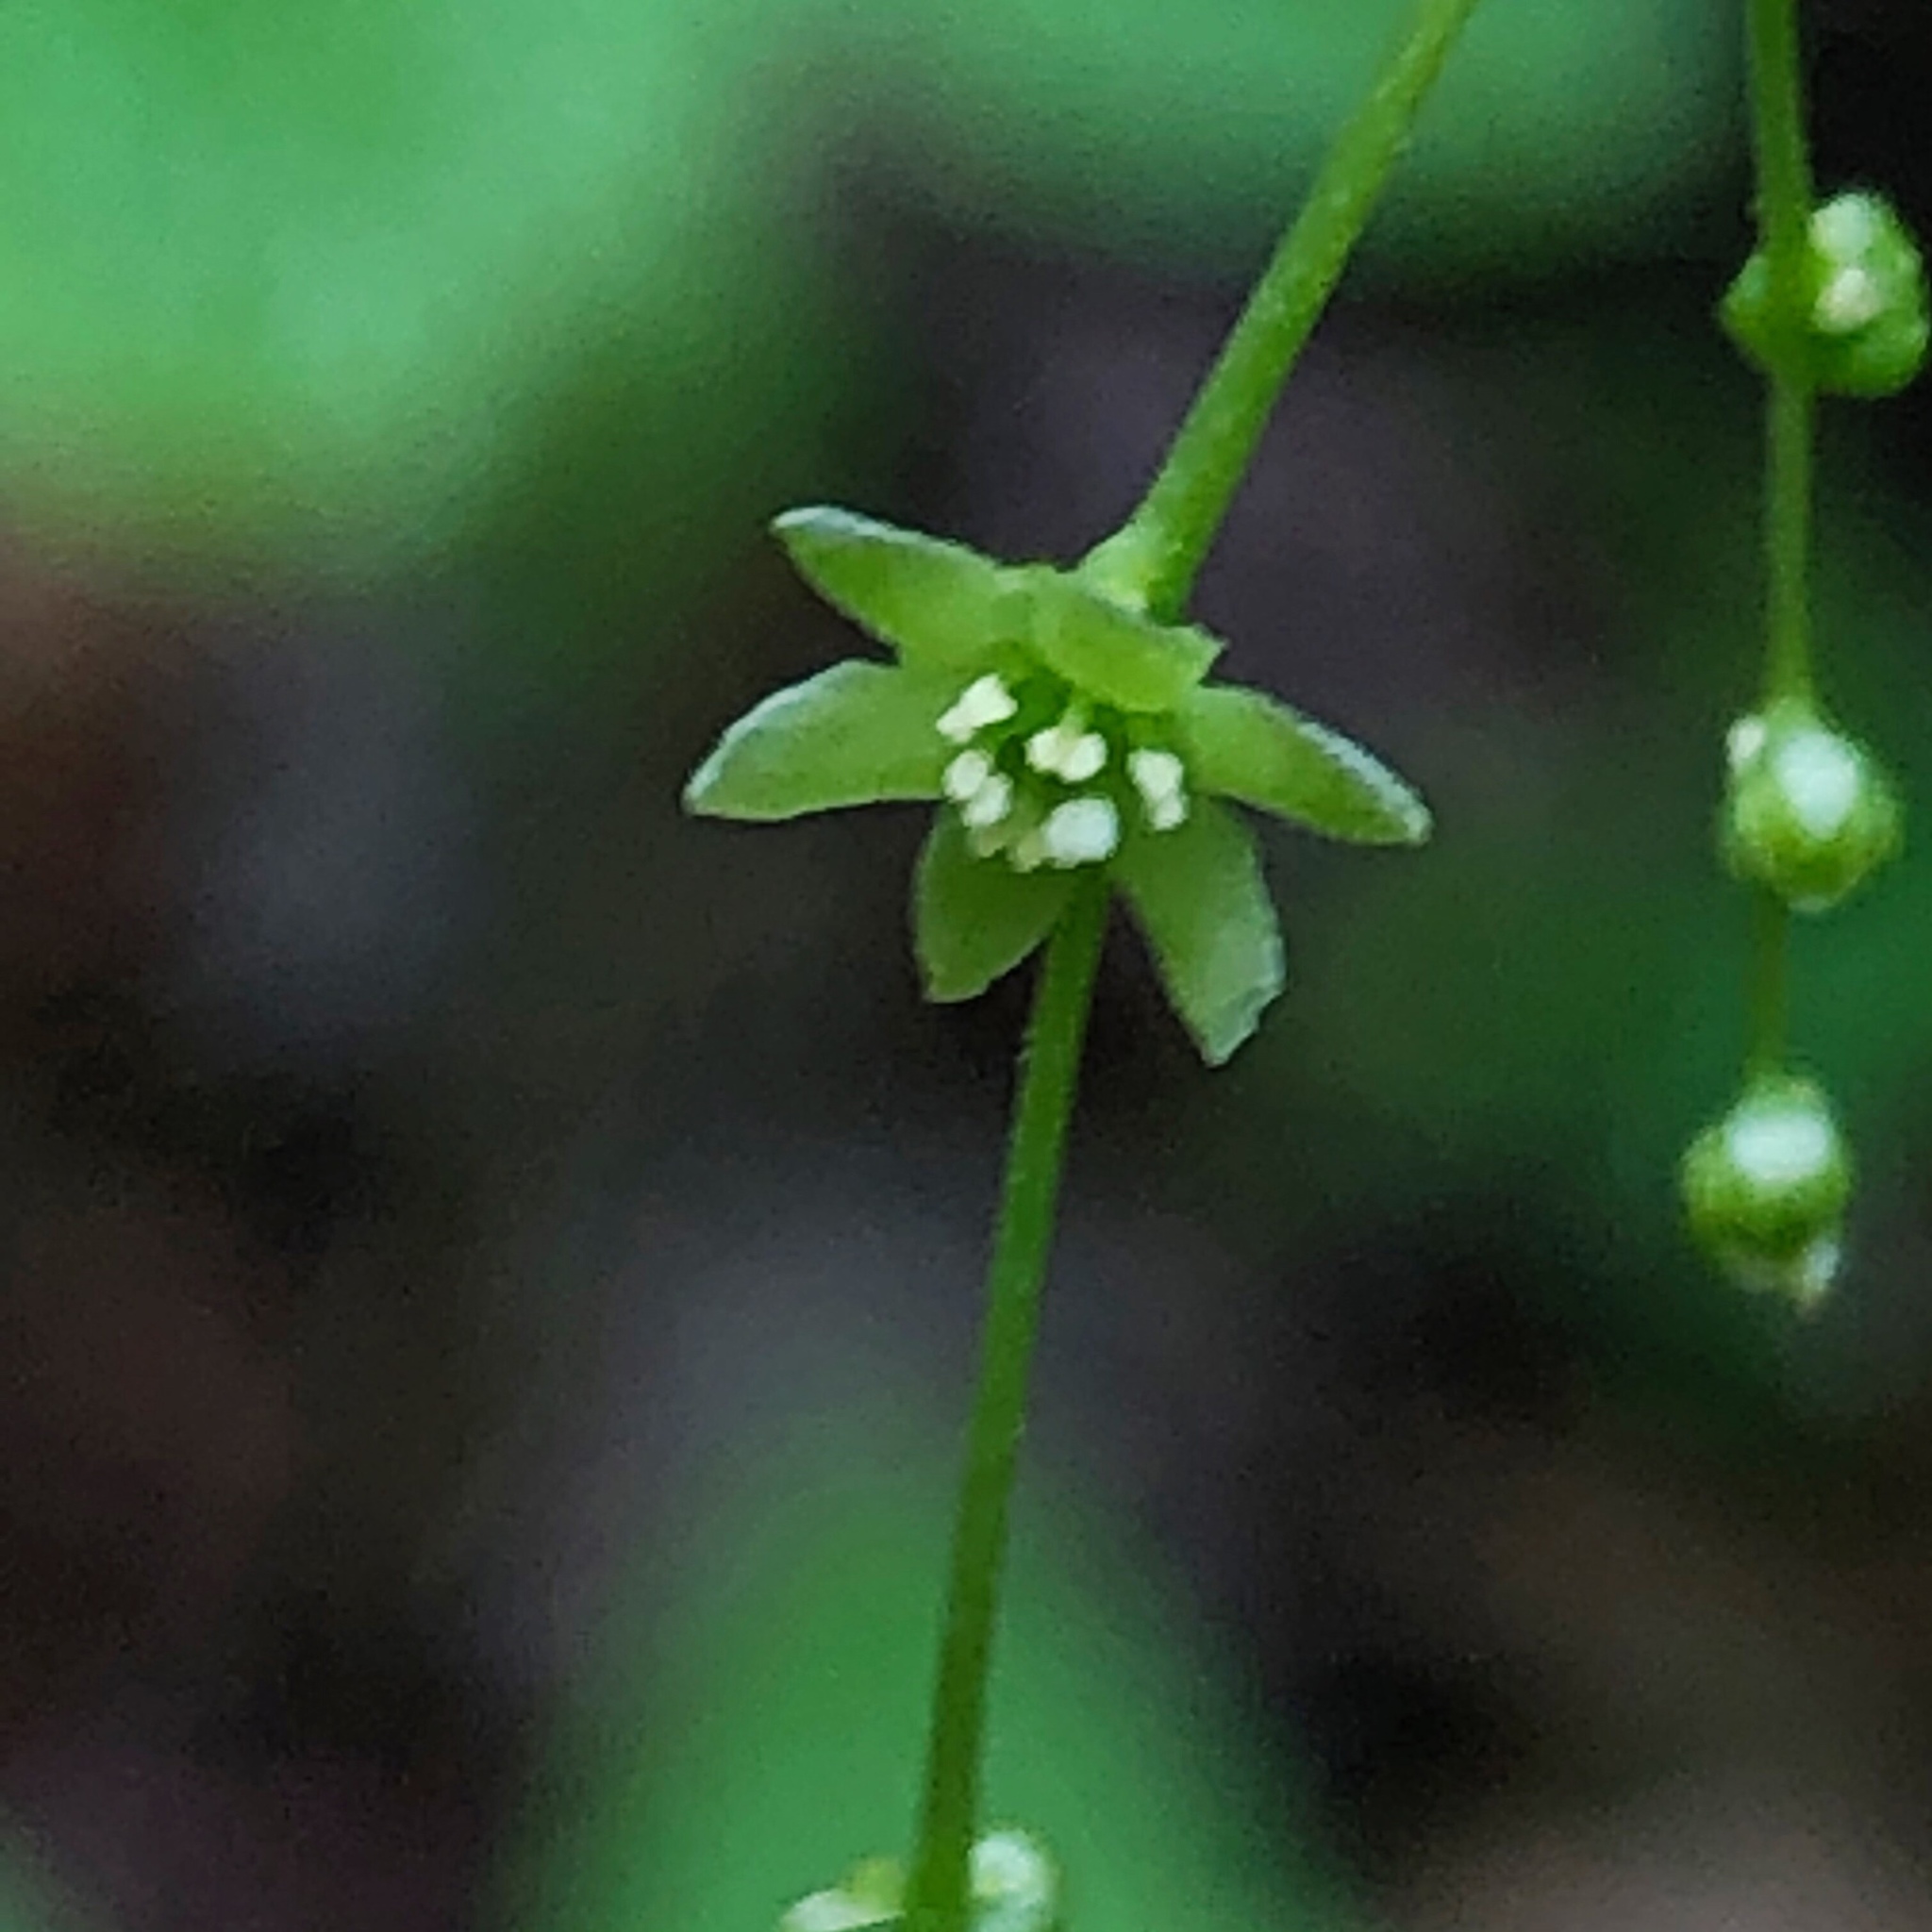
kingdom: Plantae
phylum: Tracheophyta
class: Liliopsida
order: Dioscoreales
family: Dioscoreaceae
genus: Dioscorea
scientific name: Dioscorea villosa
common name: Wild yam
